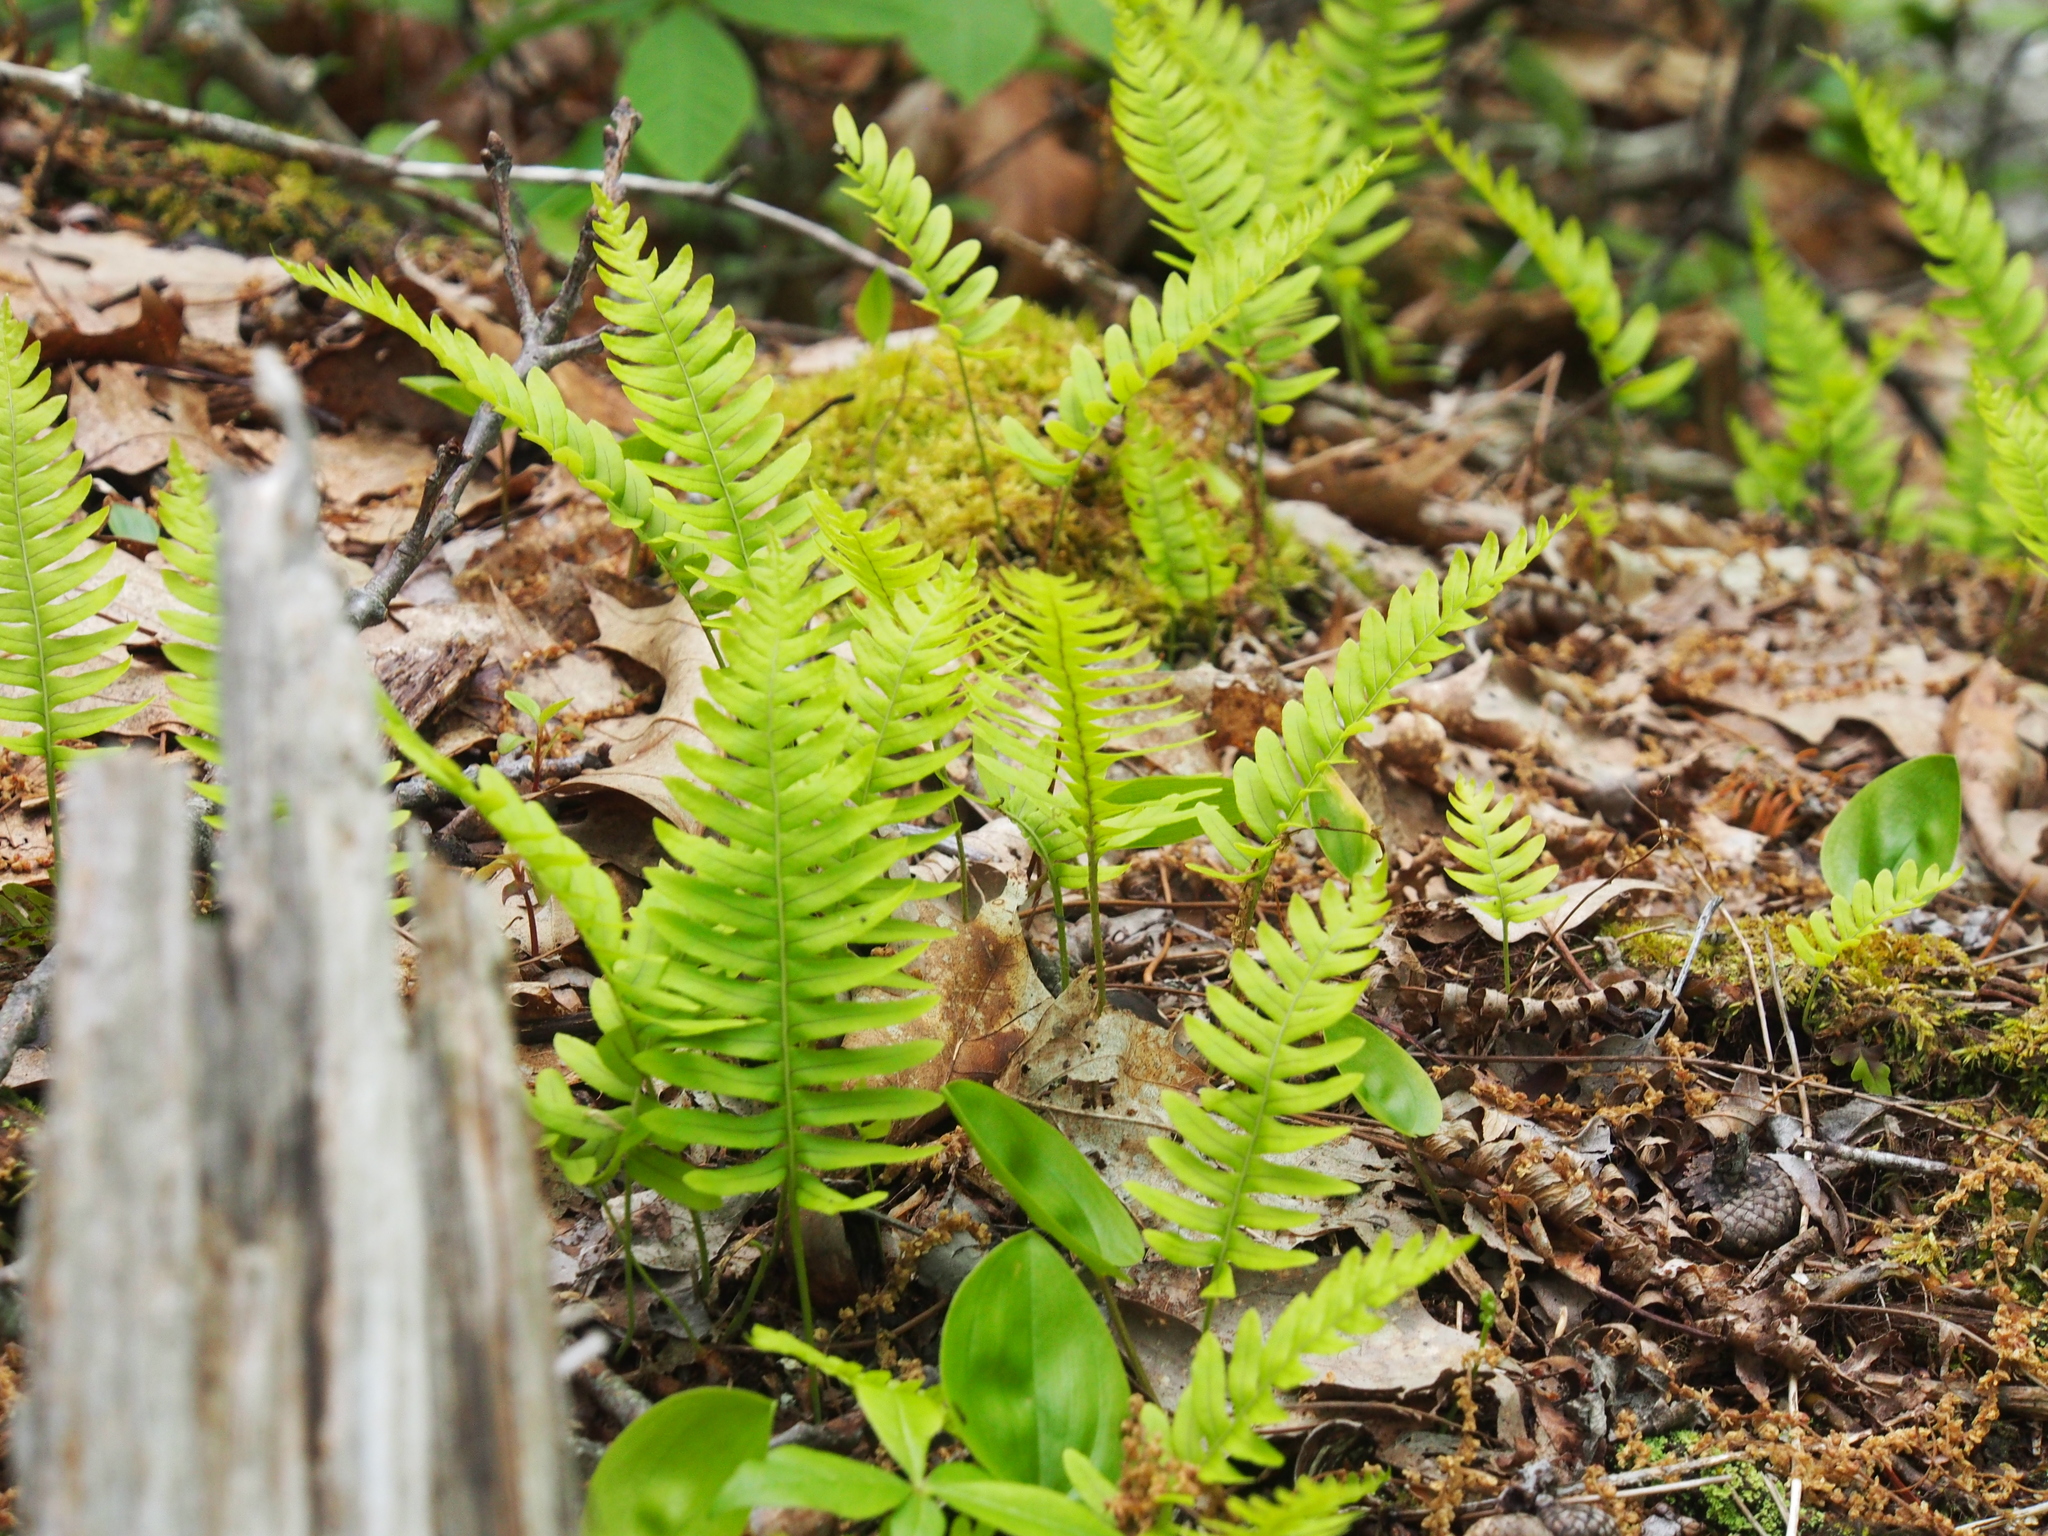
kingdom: Plantae
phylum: Tracheophyta
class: Polypodiopsida
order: Polypodiales
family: Polypodiaceae
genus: Polypodium
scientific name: Polypodium virginianum
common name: American wall fern
